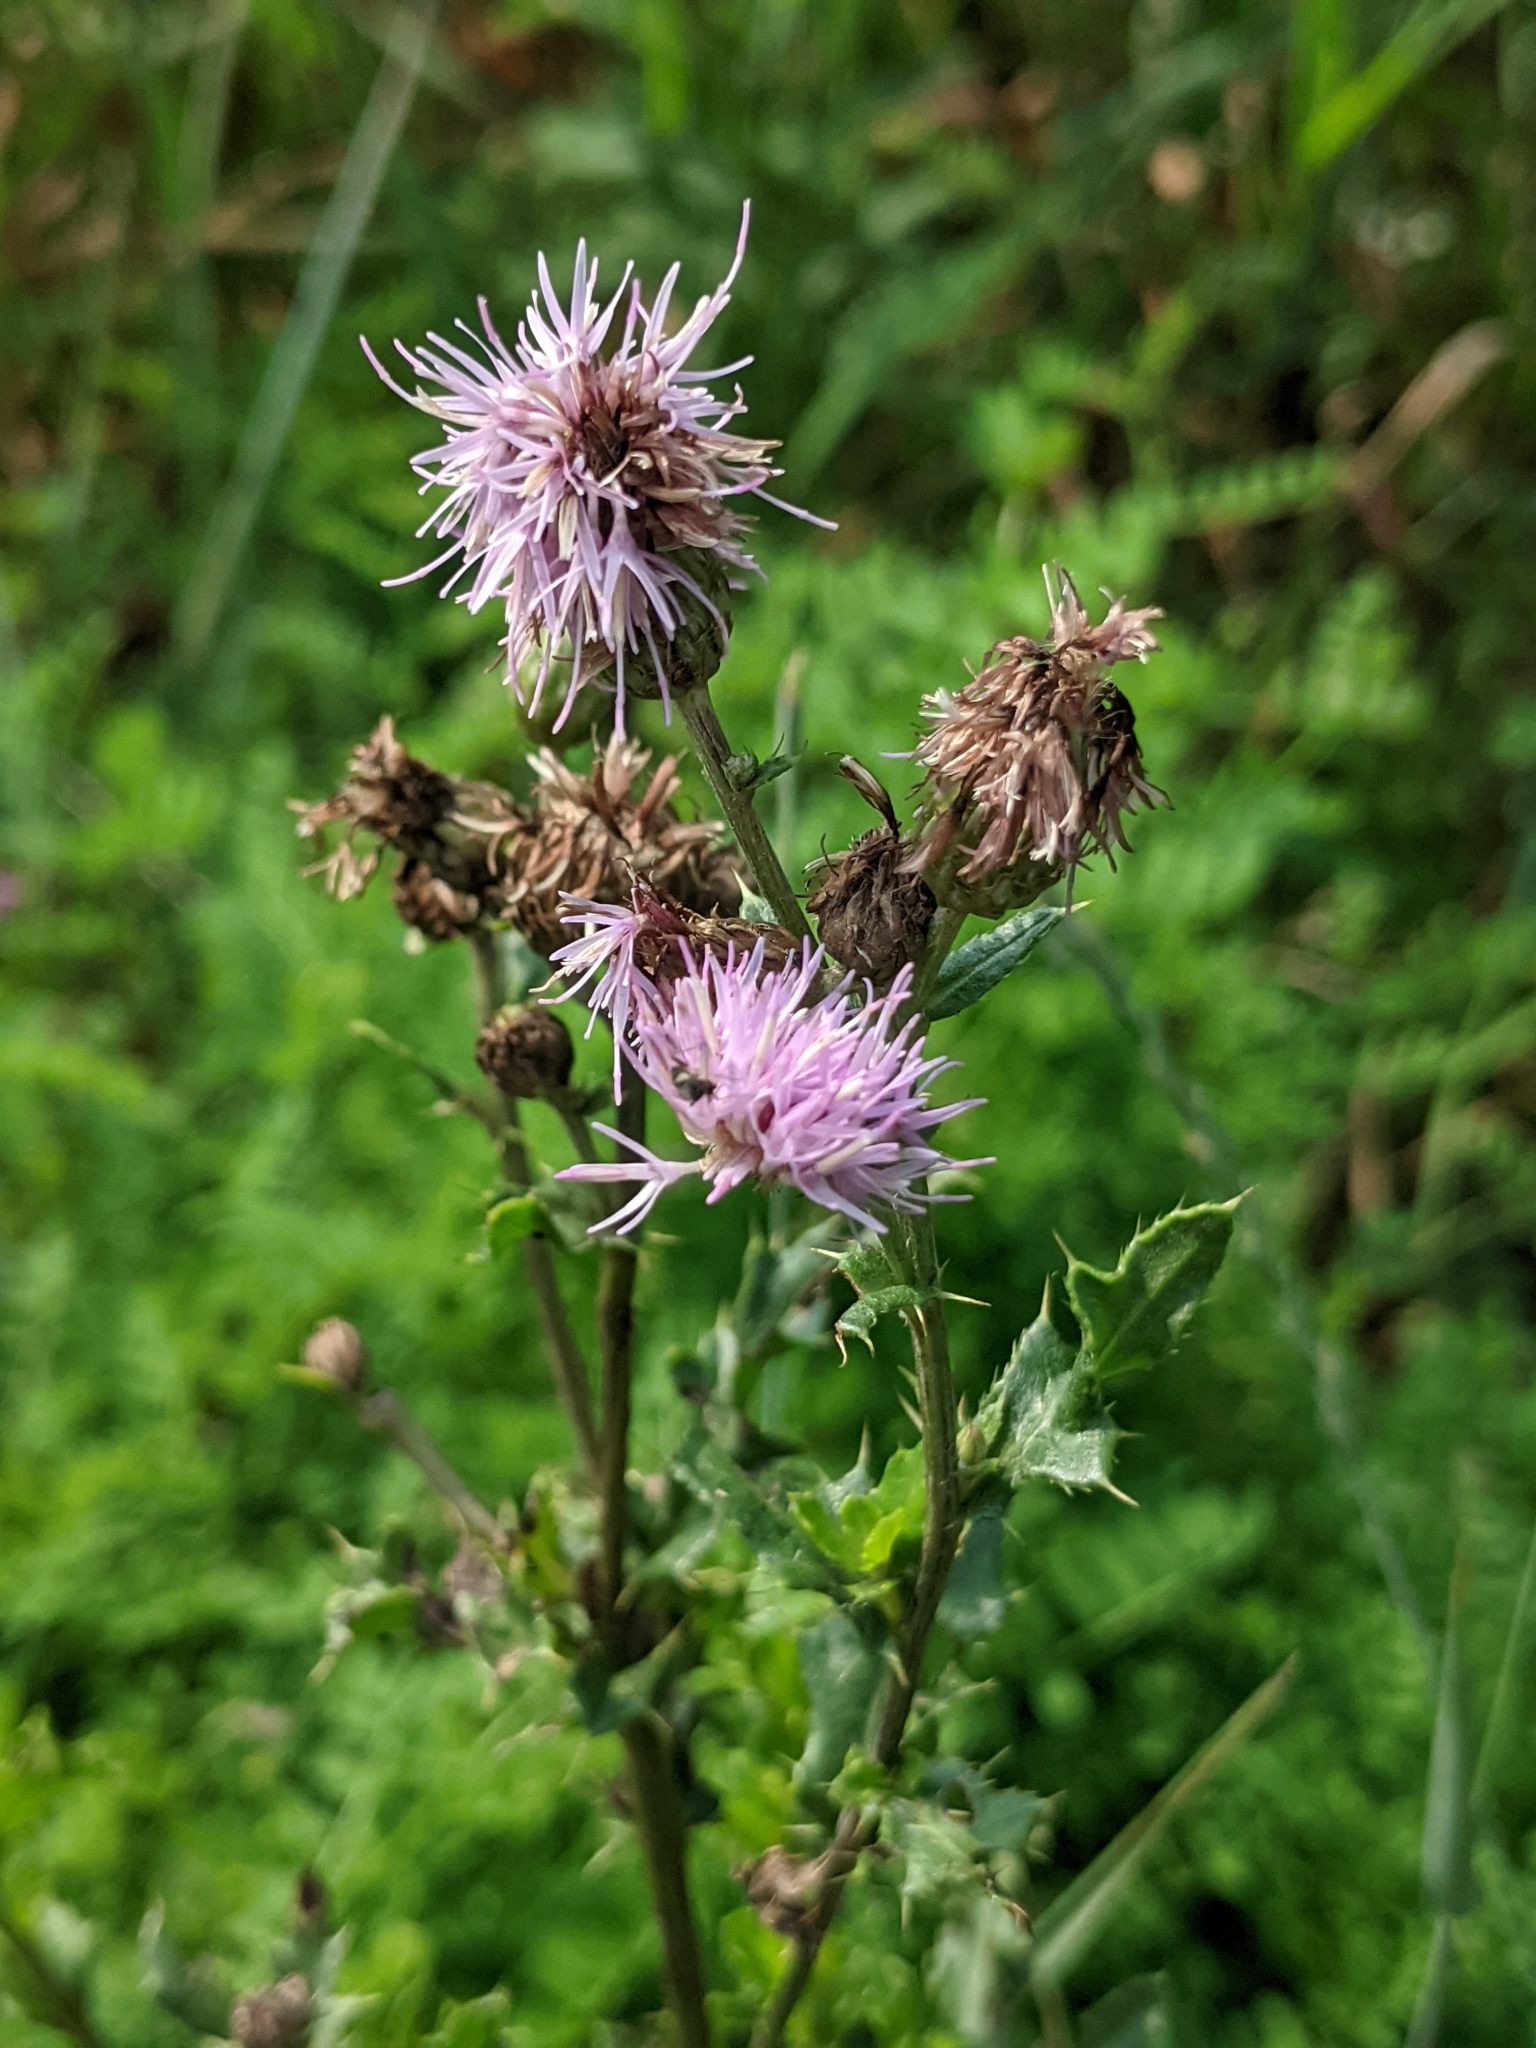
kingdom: Plantae
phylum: Tracheophyta
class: Magnoliopsida
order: Asterales
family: Asteraceae
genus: Cirsium
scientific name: Cirsium arvense
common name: Creeping thistle
